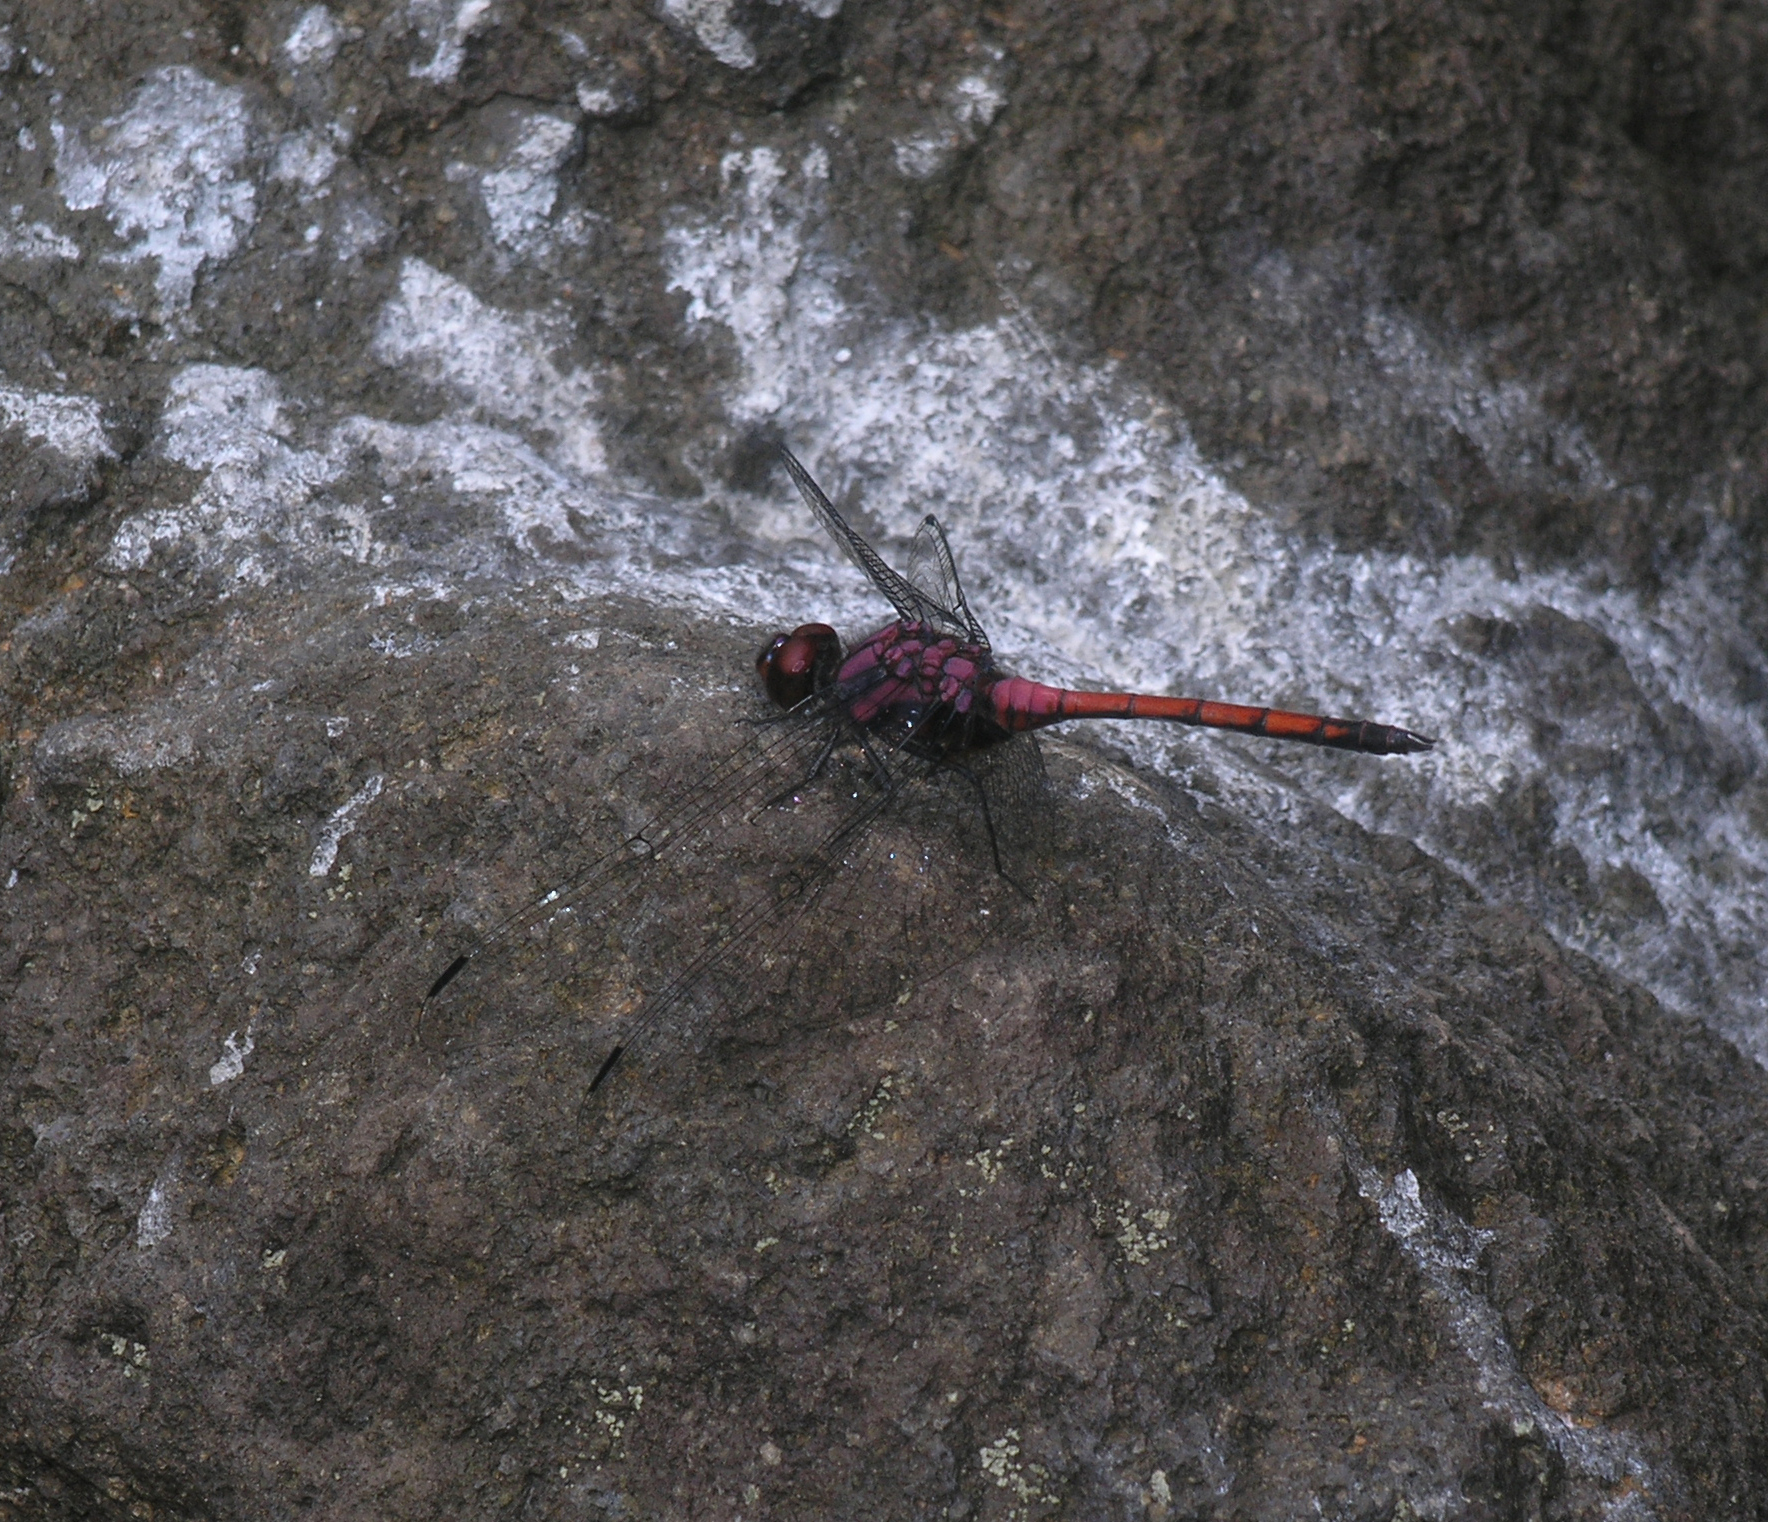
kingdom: Animalia
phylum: Arthropoda
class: Insecta
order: Odonata
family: Libellulidae
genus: Trithemis
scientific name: Trithemis lilacina
